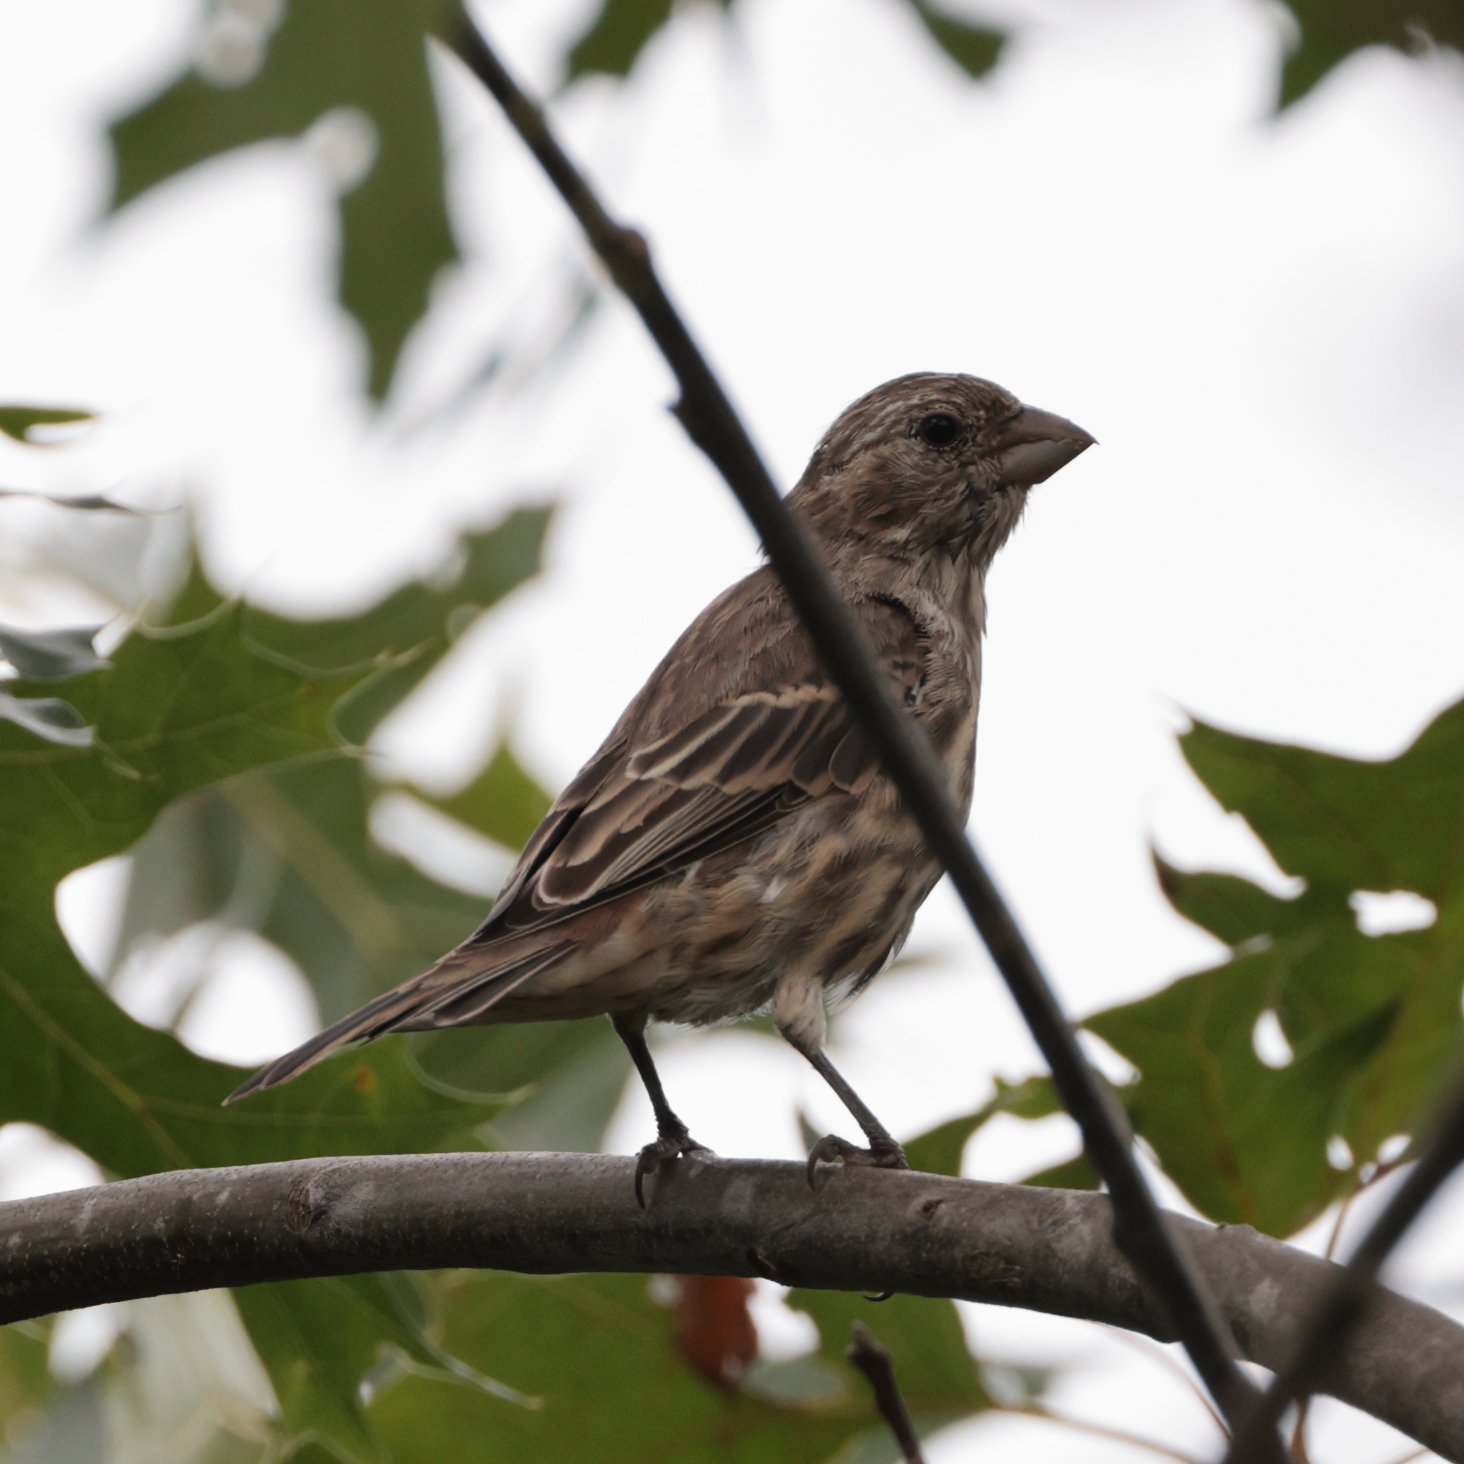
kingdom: Animalia
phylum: Chordata
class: Aves
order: Passeriformes
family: Fringillidae
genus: Haemorhous
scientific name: Haemorhous mexicanus
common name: House finch
